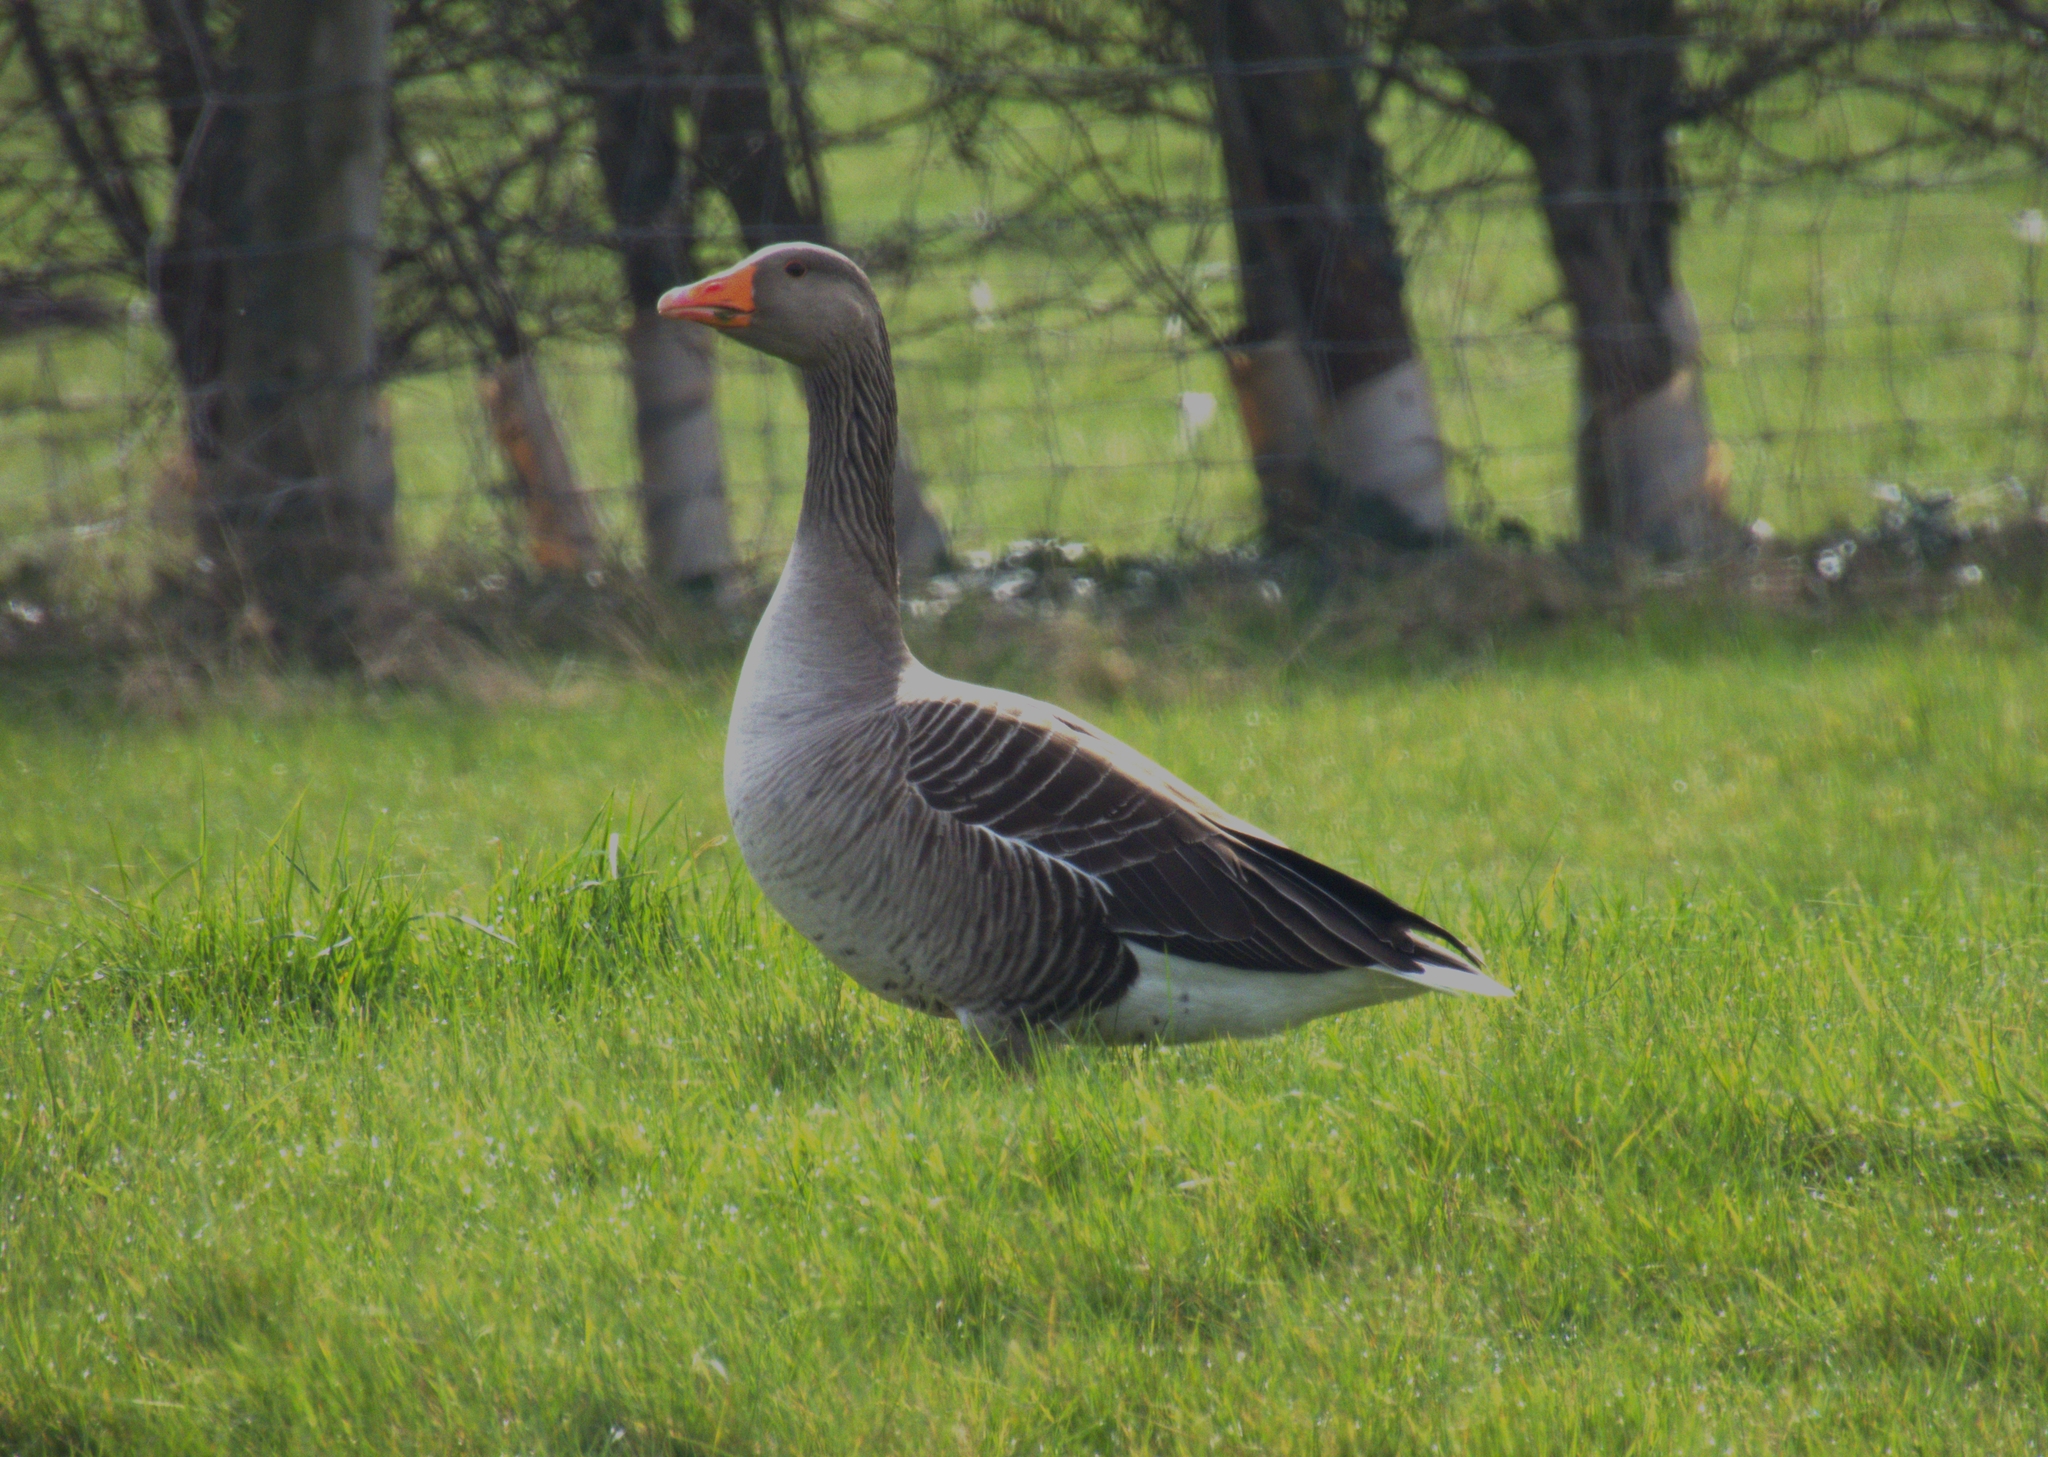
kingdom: Animalia
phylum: Chordata
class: Aves
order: Anseriformes
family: Anatidae
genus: Anser
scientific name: Anser anser
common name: Greylag goose
